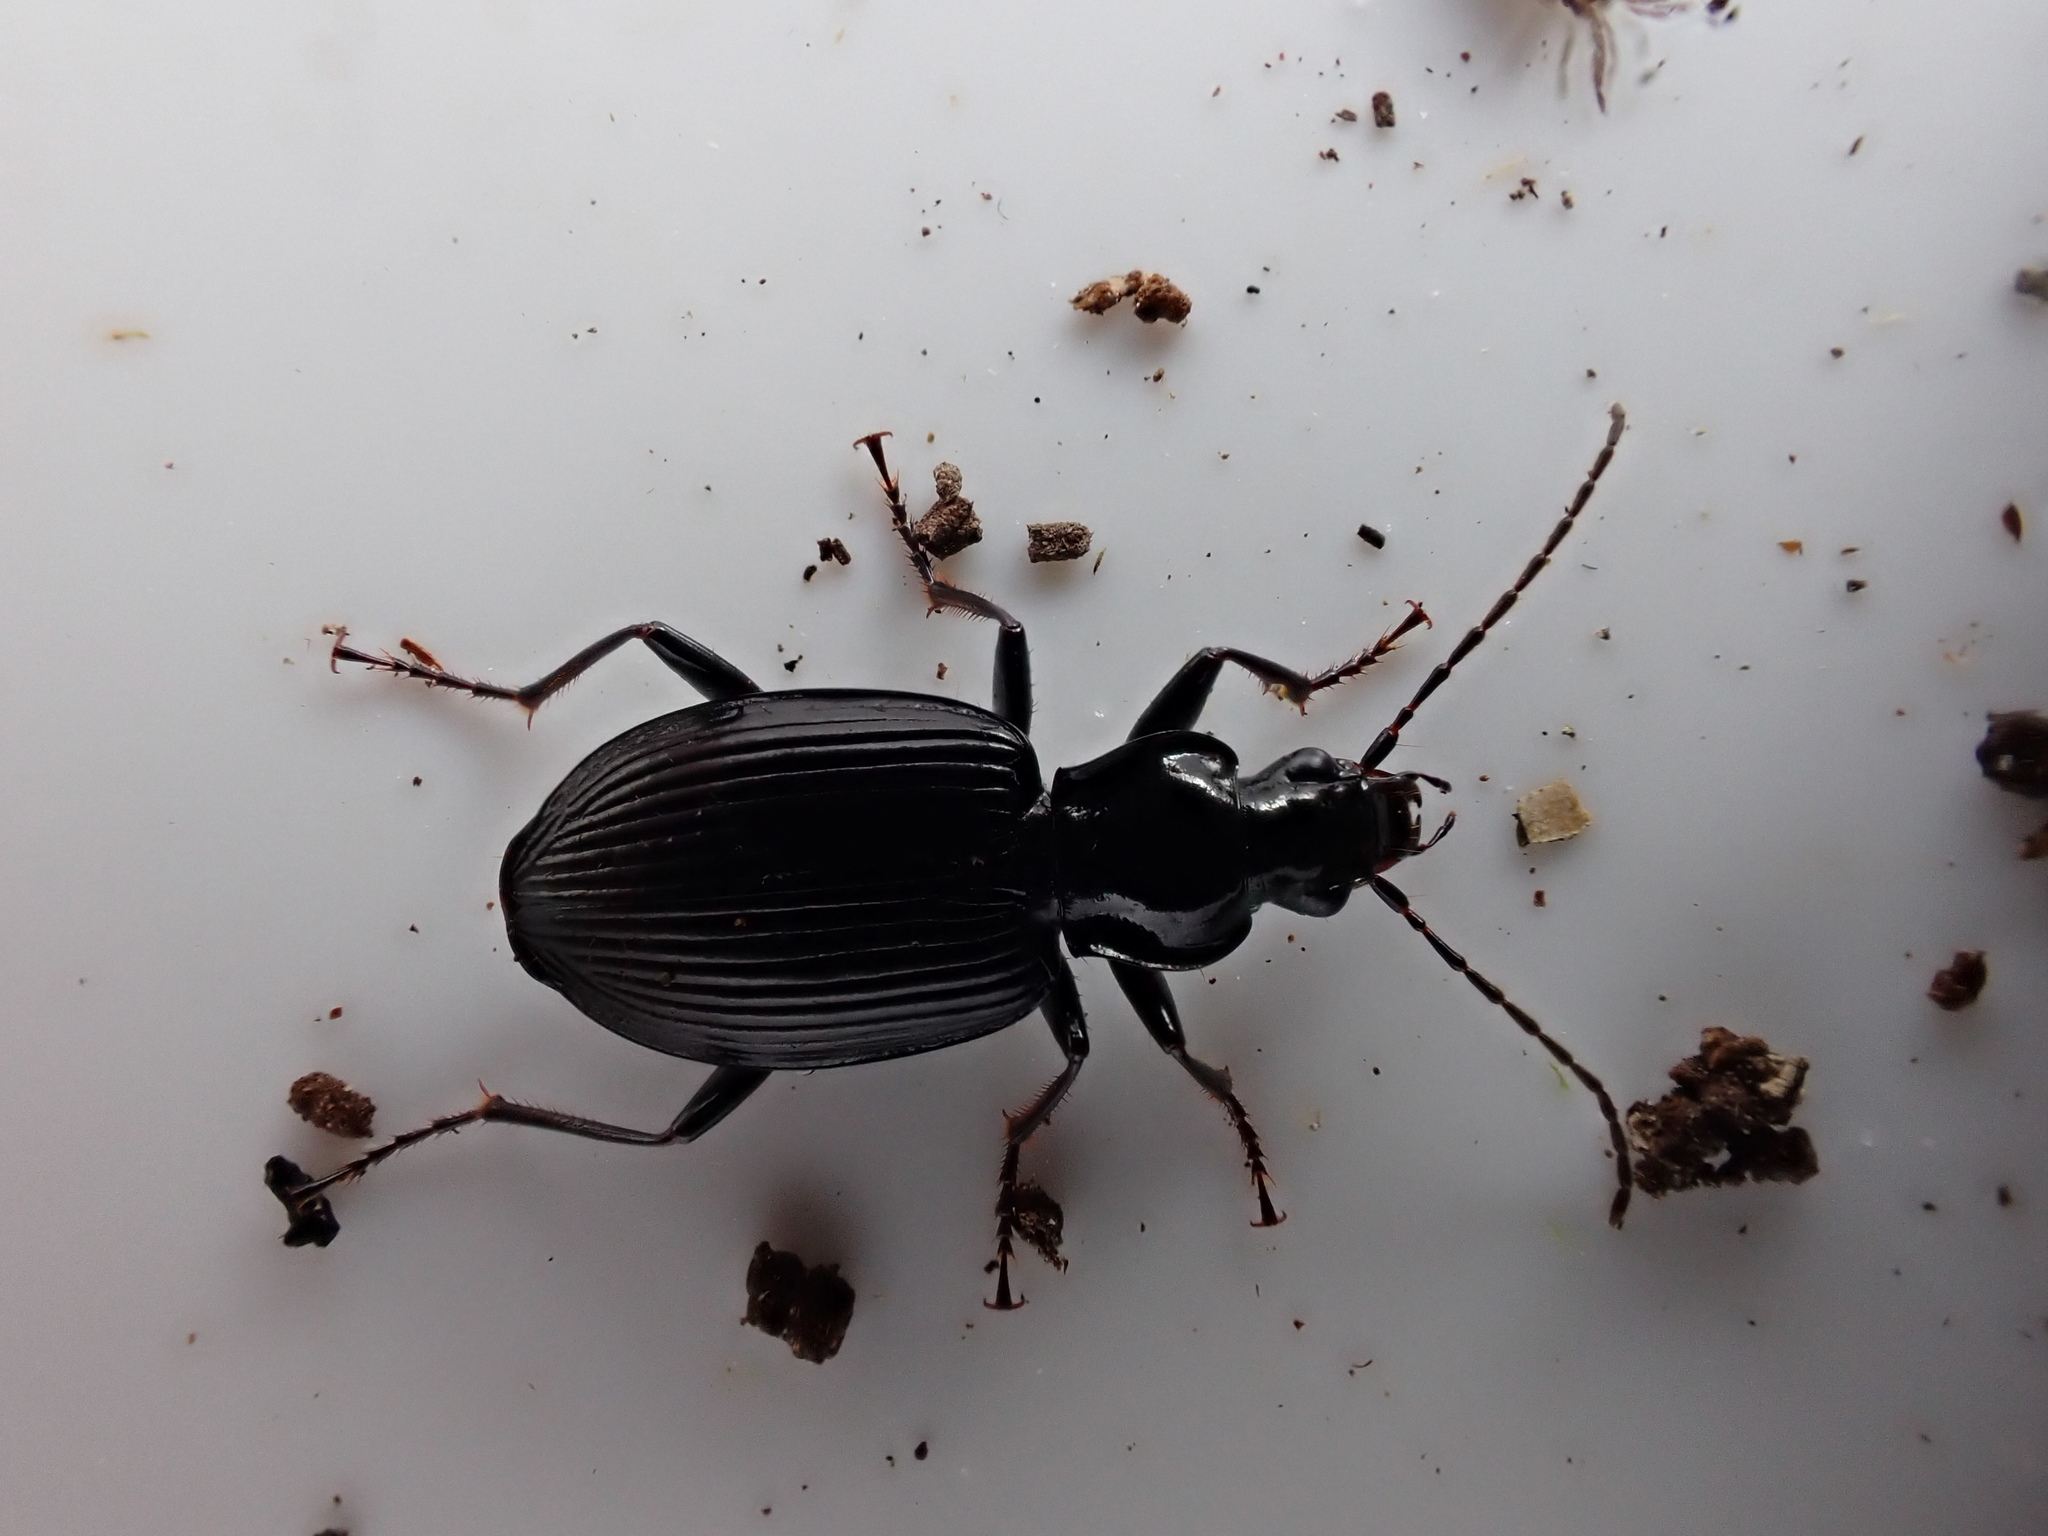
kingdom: Animalia
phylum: Arthropoda
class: Insecta
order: Coleoptera
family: Carabidae
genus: Platynus
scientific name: Platynus assimilis
